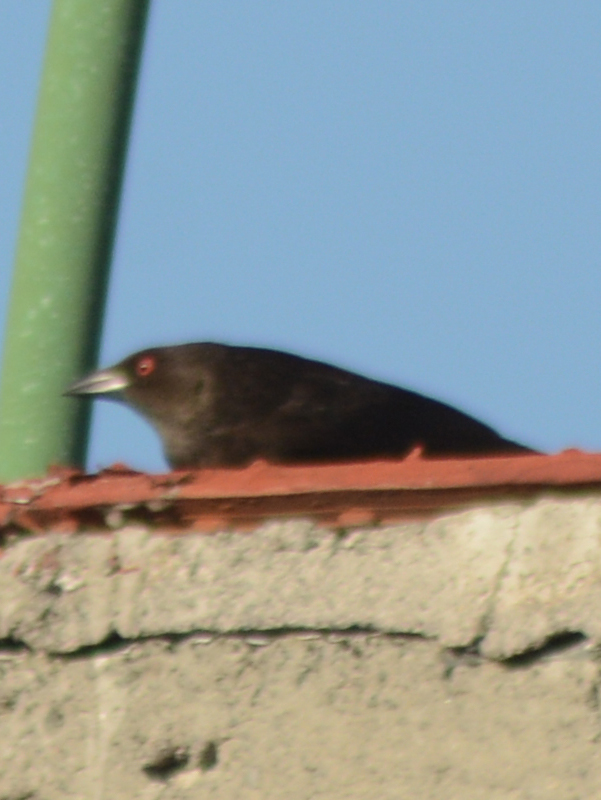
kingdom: Animalia
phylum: Chordata
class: Aves
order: Passeriformes
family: Icteridae
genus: Molothrus
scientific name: Molothrus aeneus
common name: Bronzed cowbird
